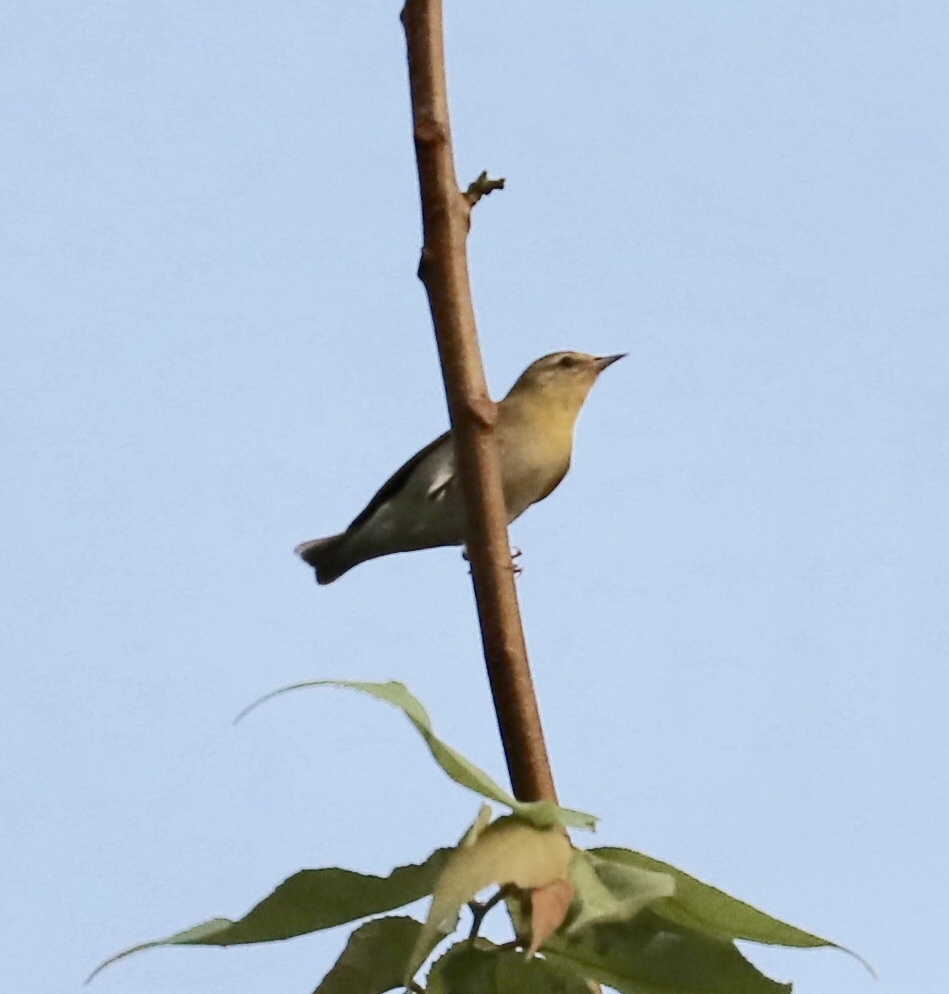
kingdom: Animalia
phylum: Chordata
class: Aves
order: Passeriformes
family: Parulidae
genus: Leiothlypis
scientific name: Leiothlypis peregrina
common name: Tennessee warbler
